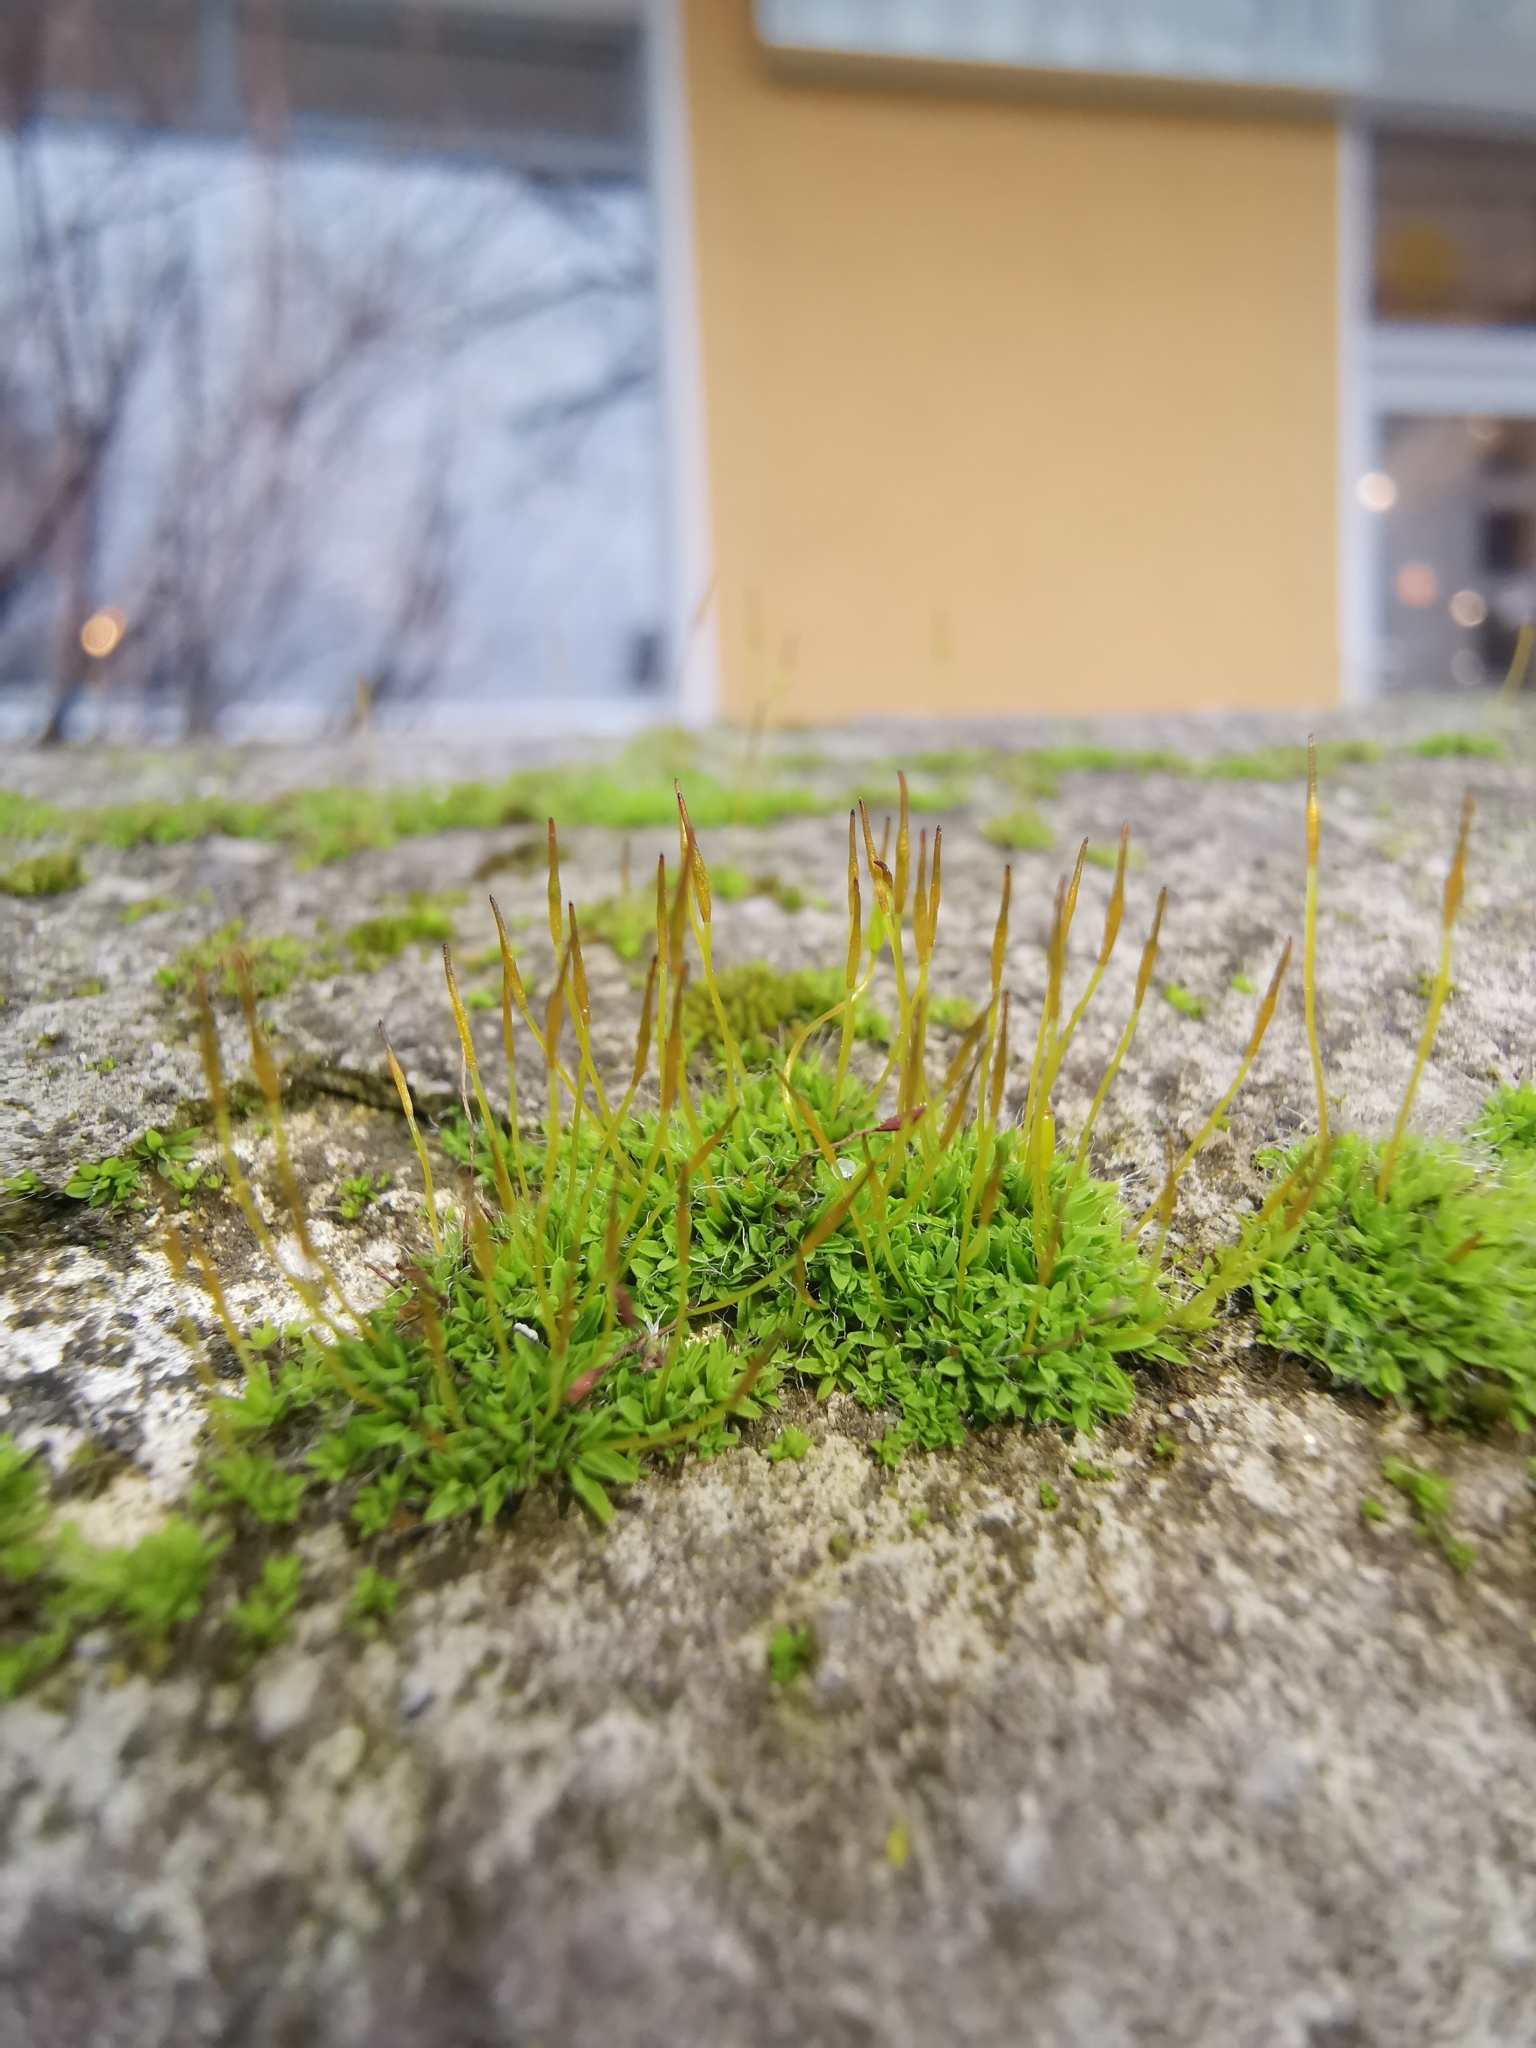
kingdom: Plantae
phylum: Bryophyta
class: Bryopsida
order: Pottiales
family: Pottiaceae
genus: Tortula
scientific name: Tortula muralis
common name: Wall screw-moss
